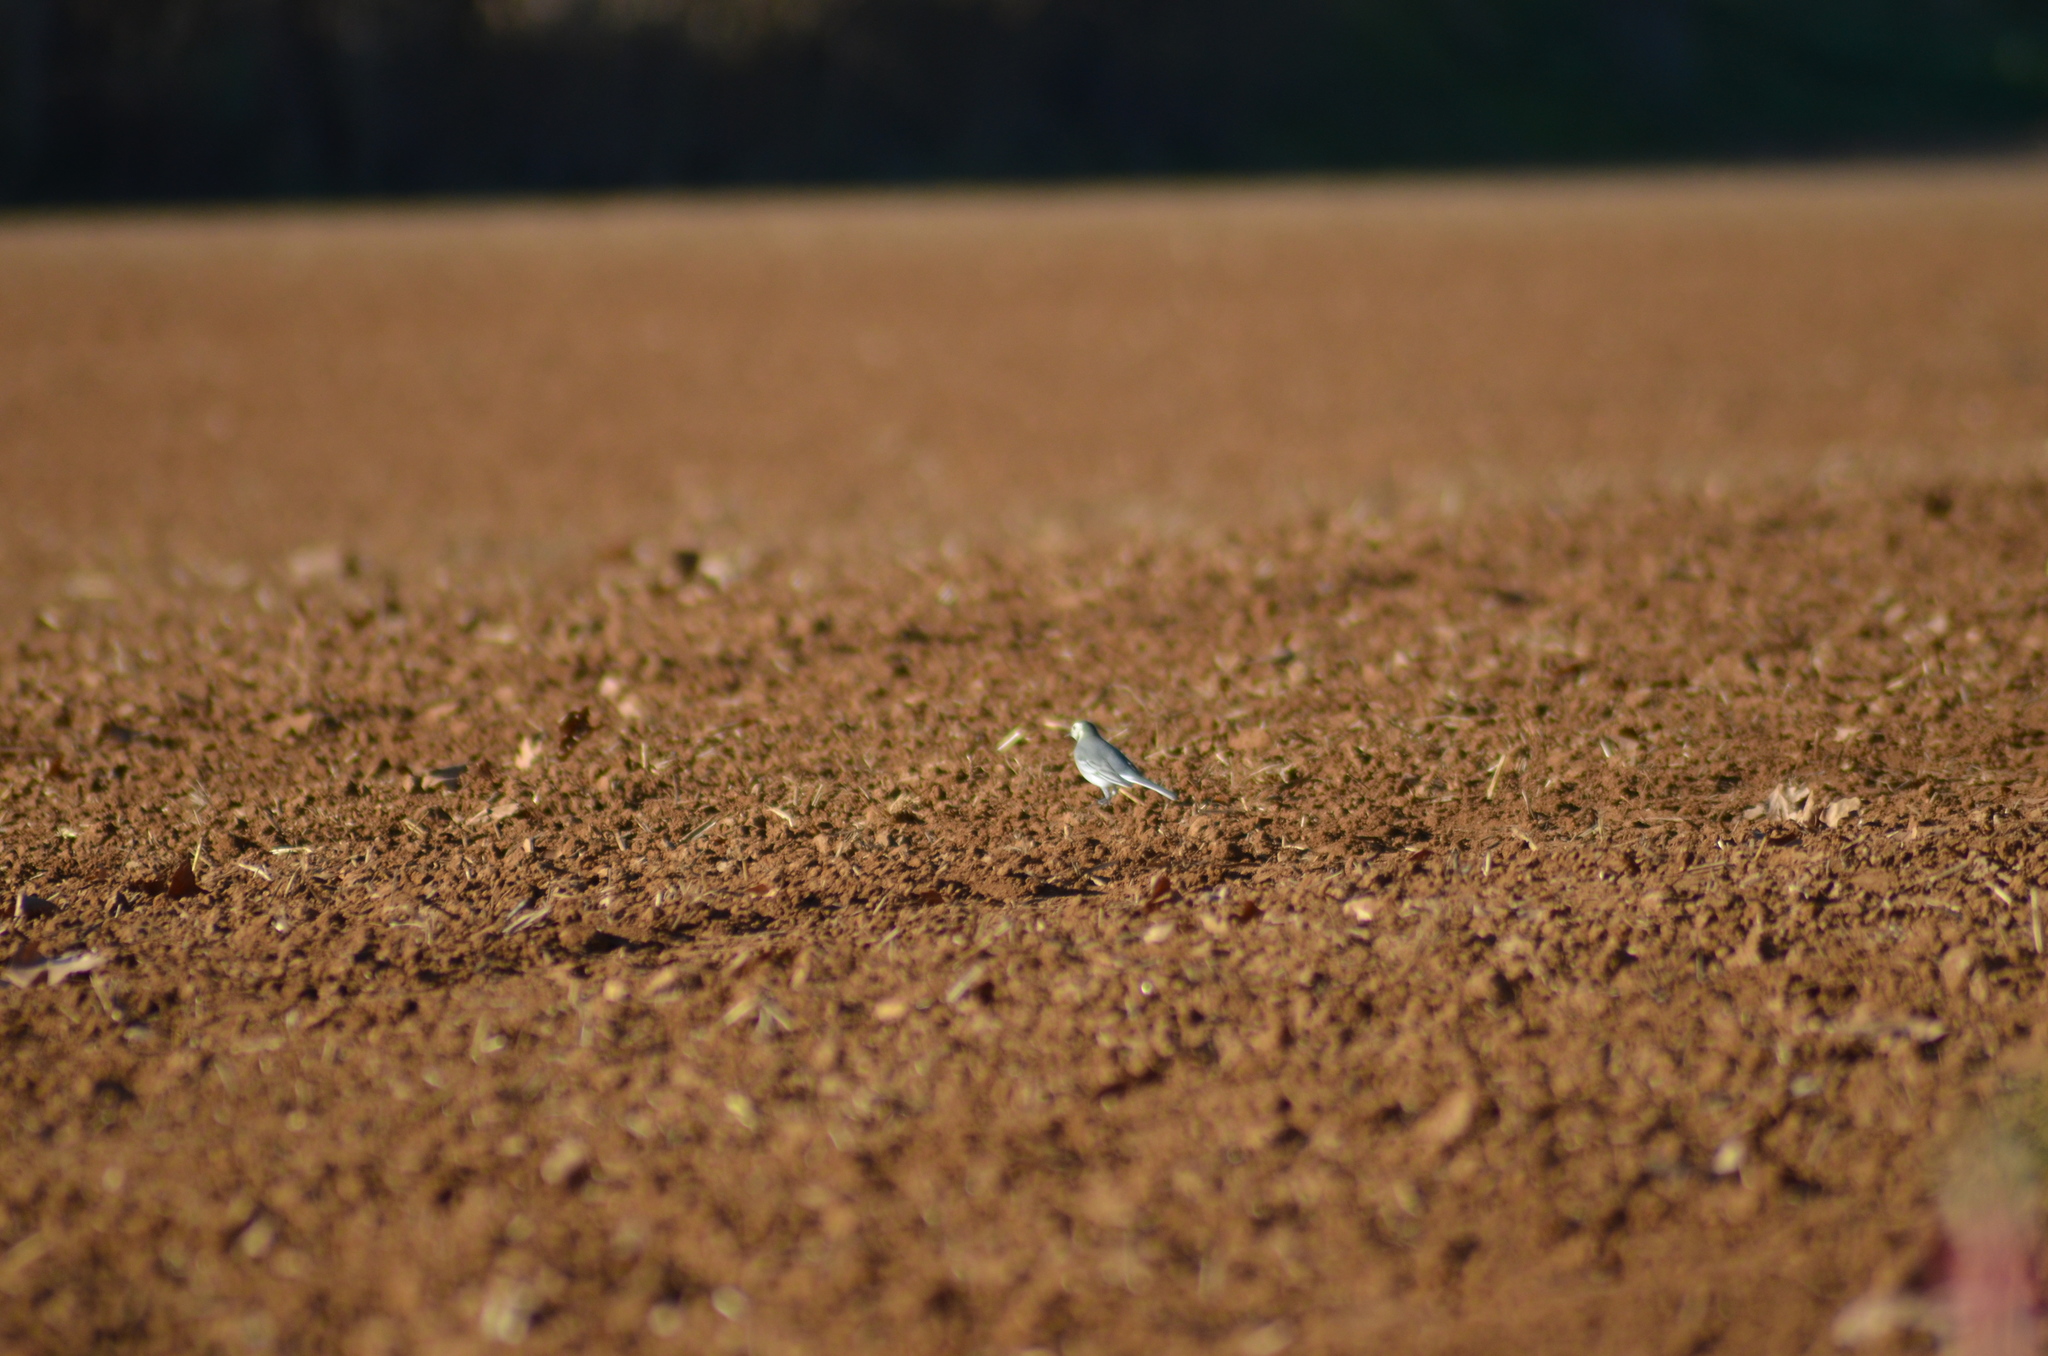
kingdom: Animalia
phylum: Chordata
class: Aves
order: Passeriformes
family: Motacillidae
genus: Motacilla
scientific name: Motacilla alba
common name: White wagtail
